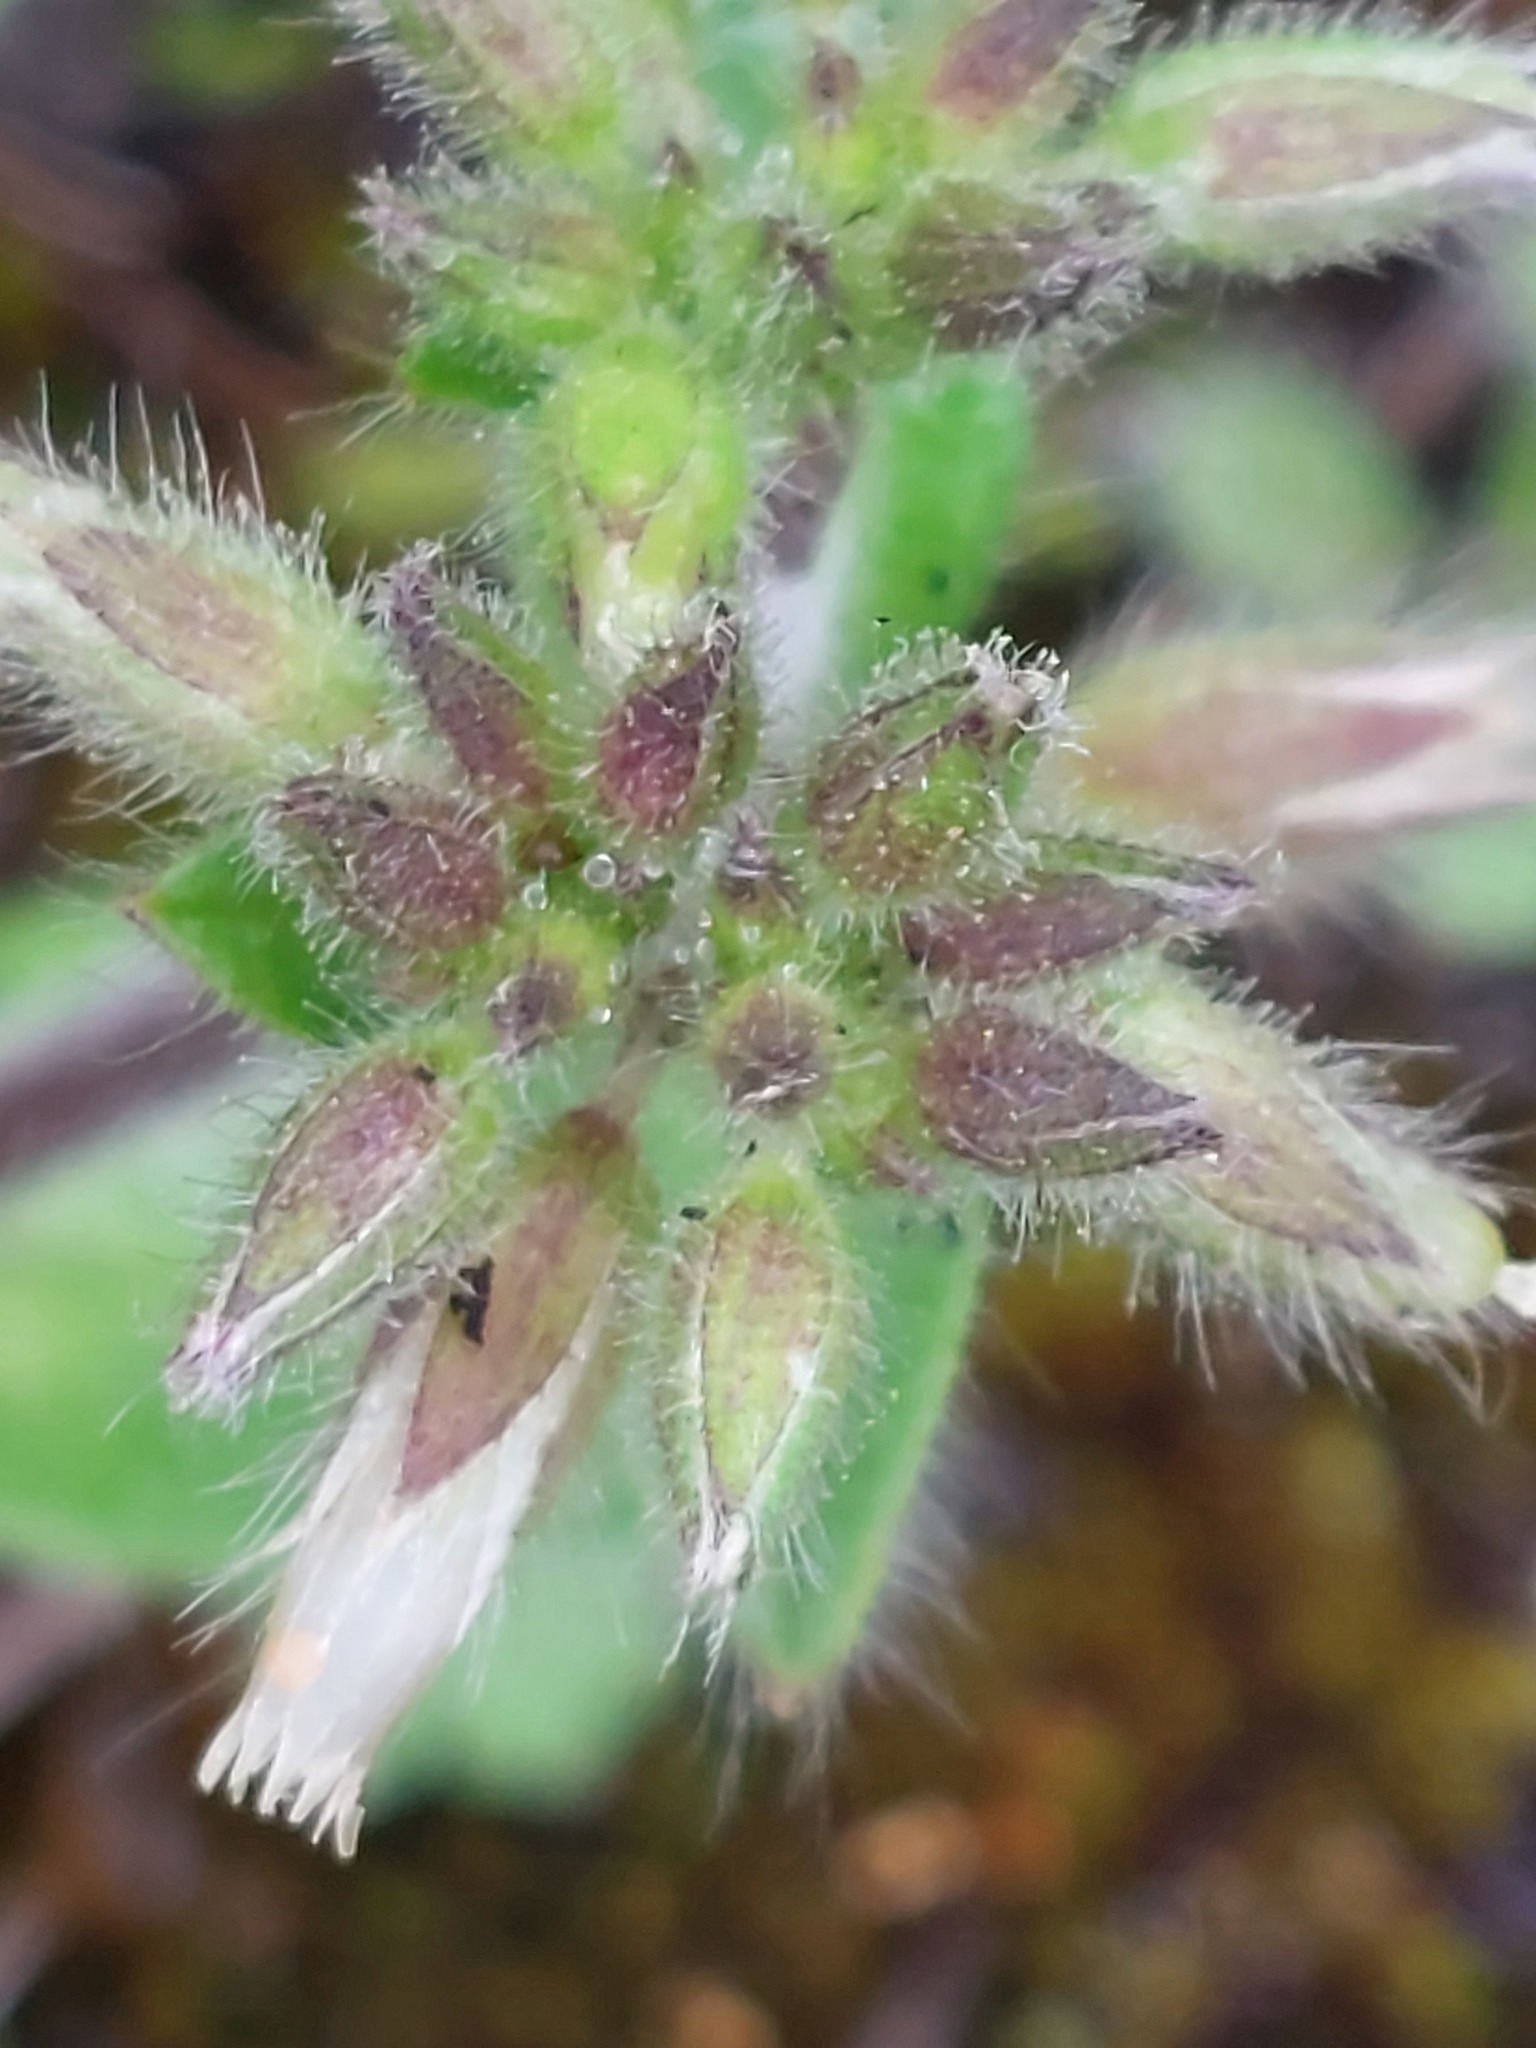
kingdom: Plantae
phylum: Tracheophyta
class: Magnoliopsida
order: Caryophyllales
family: Caryophyllaceae
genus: Cerastium
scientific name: Cerastium glomeratum
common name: Sticky chickweed
